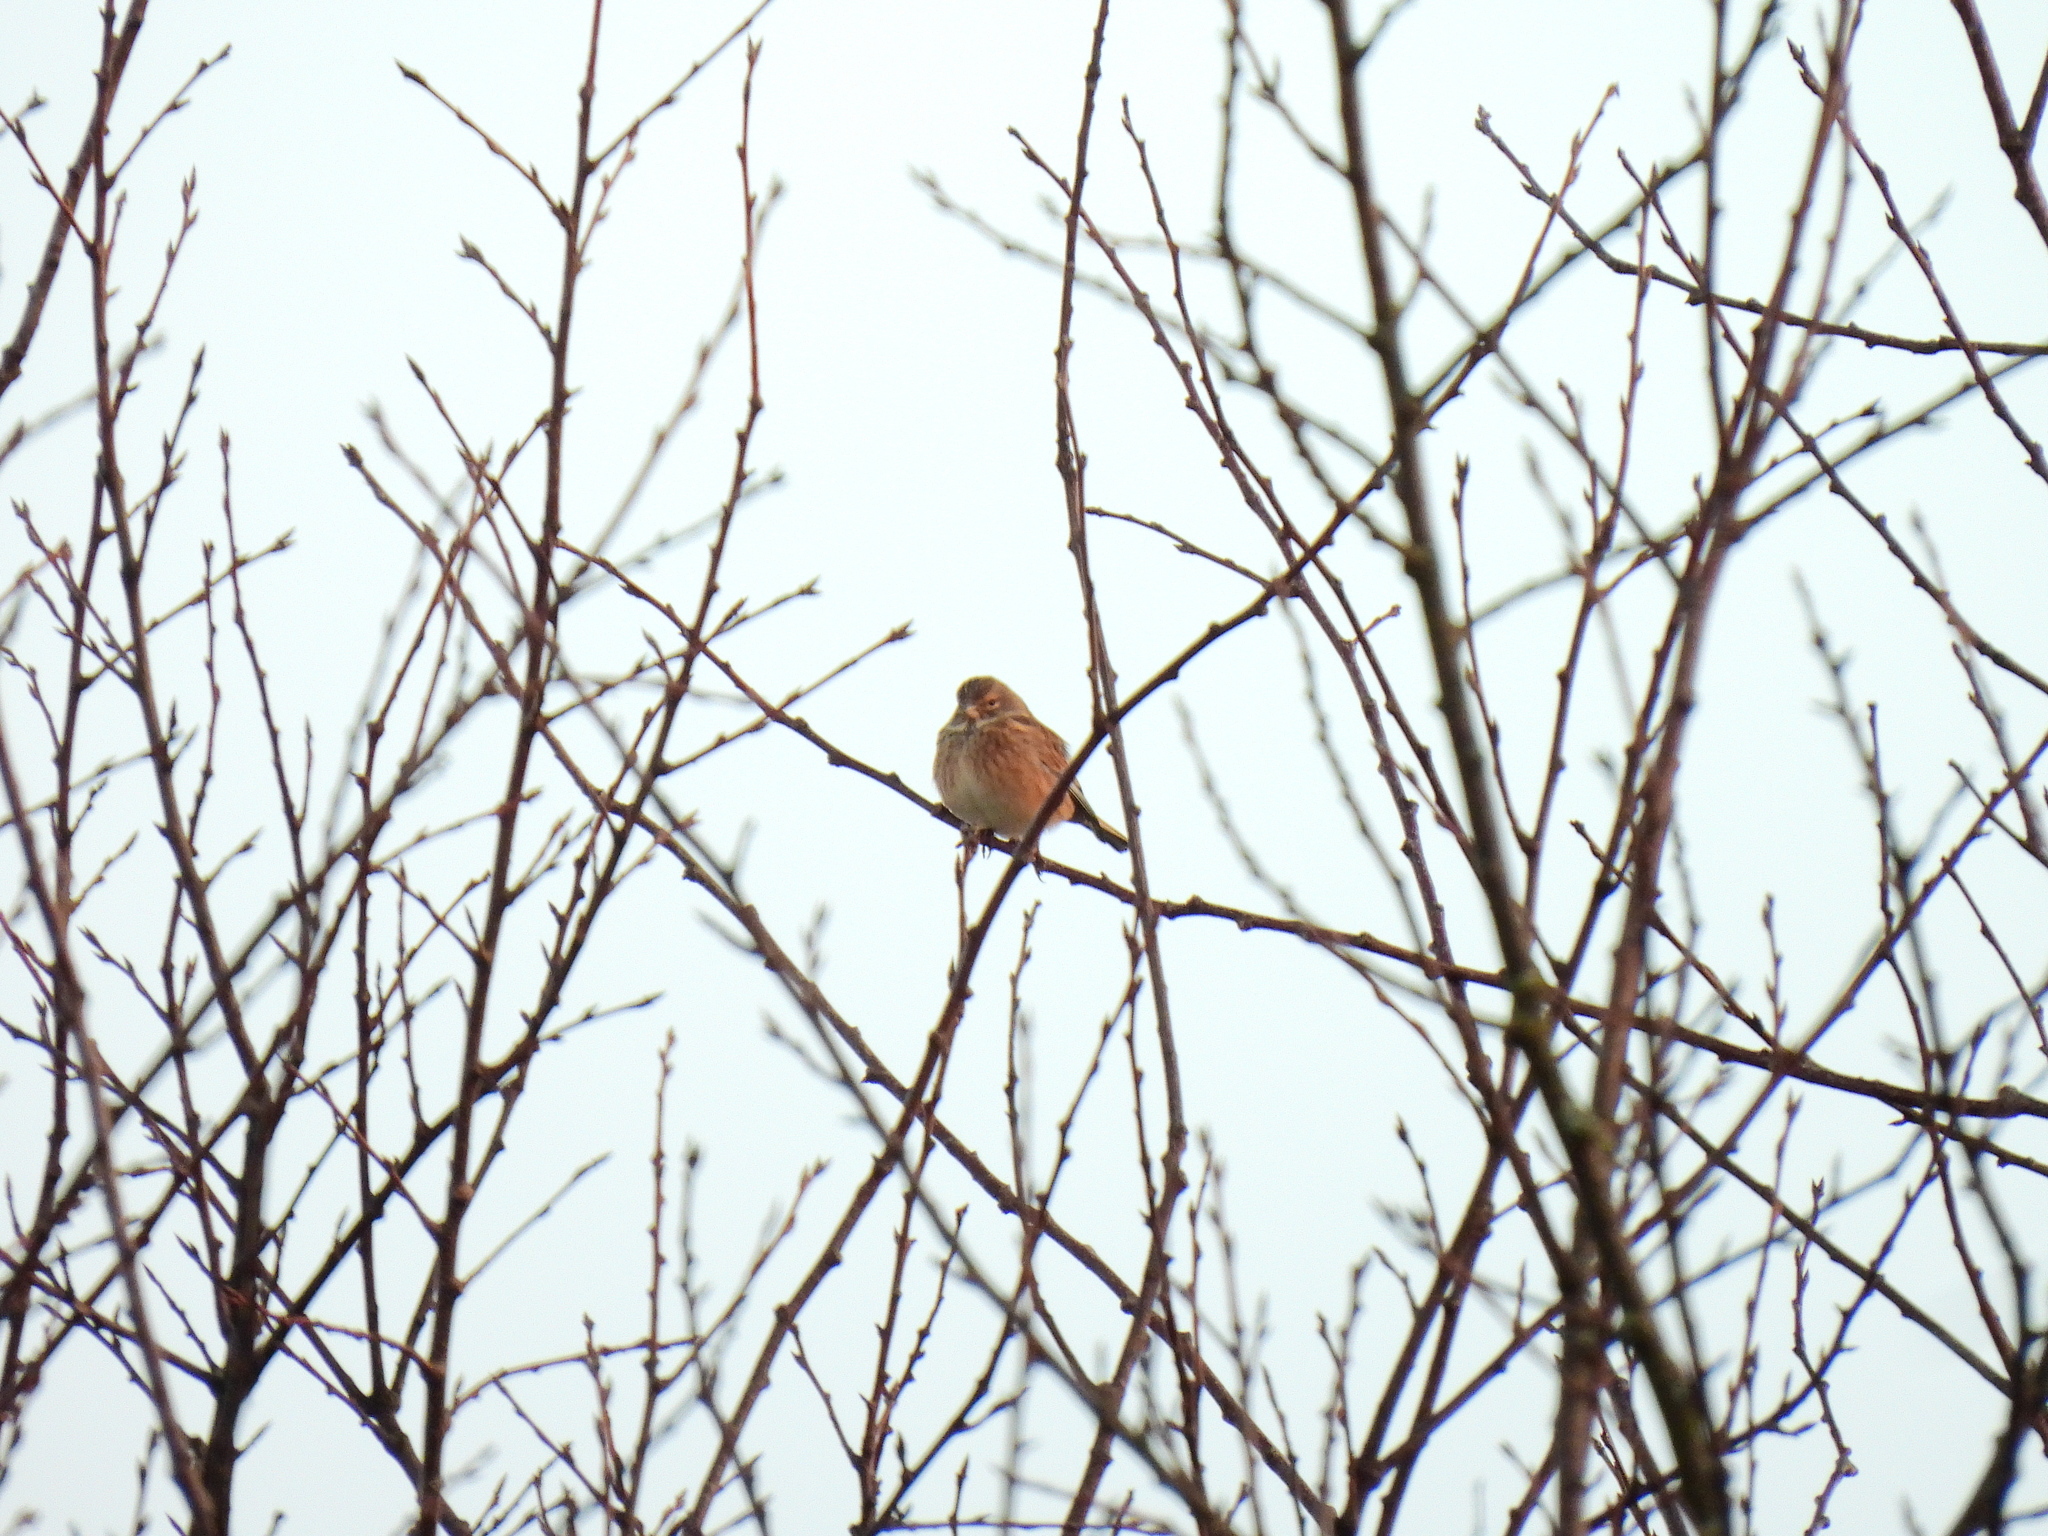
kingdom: Animalia
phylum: Chordata
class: Aves
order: Passeriformes
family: Fringillidae
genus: Linaria
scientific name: Linaria cannabina
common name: Common linnet
